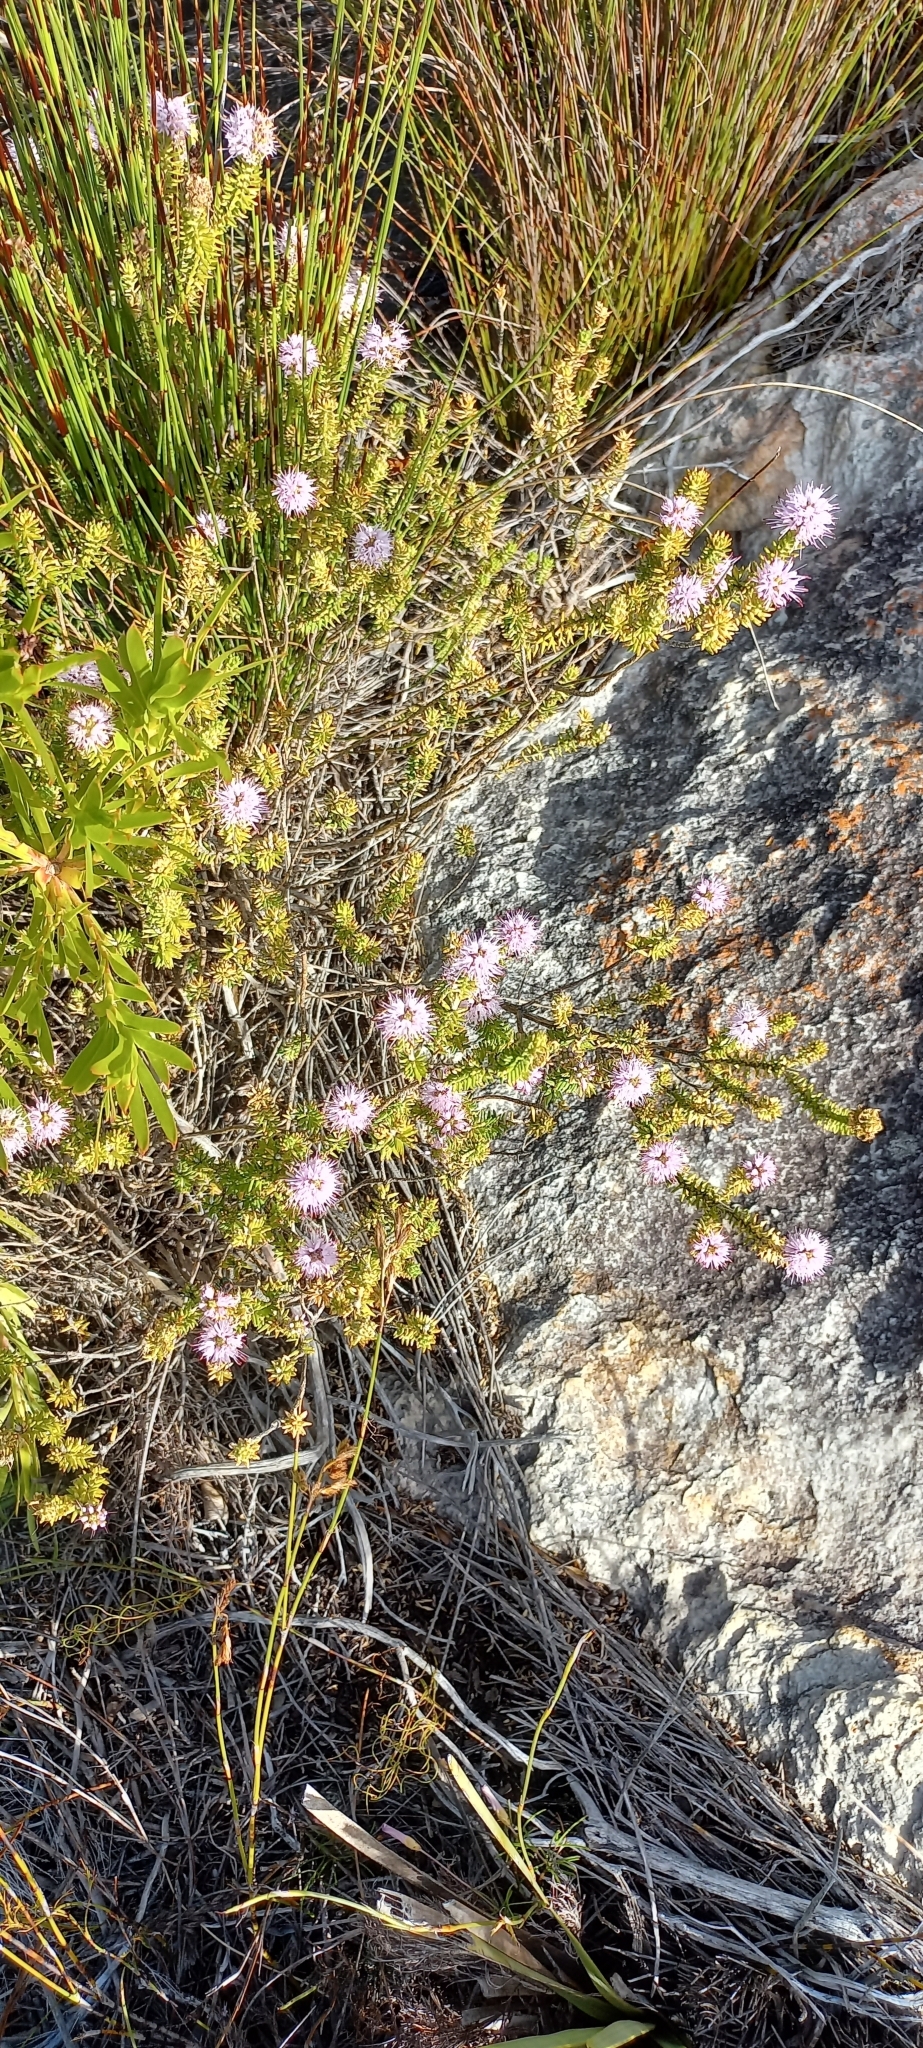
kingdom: Plantae
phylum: Tracheophyta
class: Magnoliopsida
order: Lamiales
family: Stilbaceae
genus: Stilbe
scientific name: Stilbe ericoides
